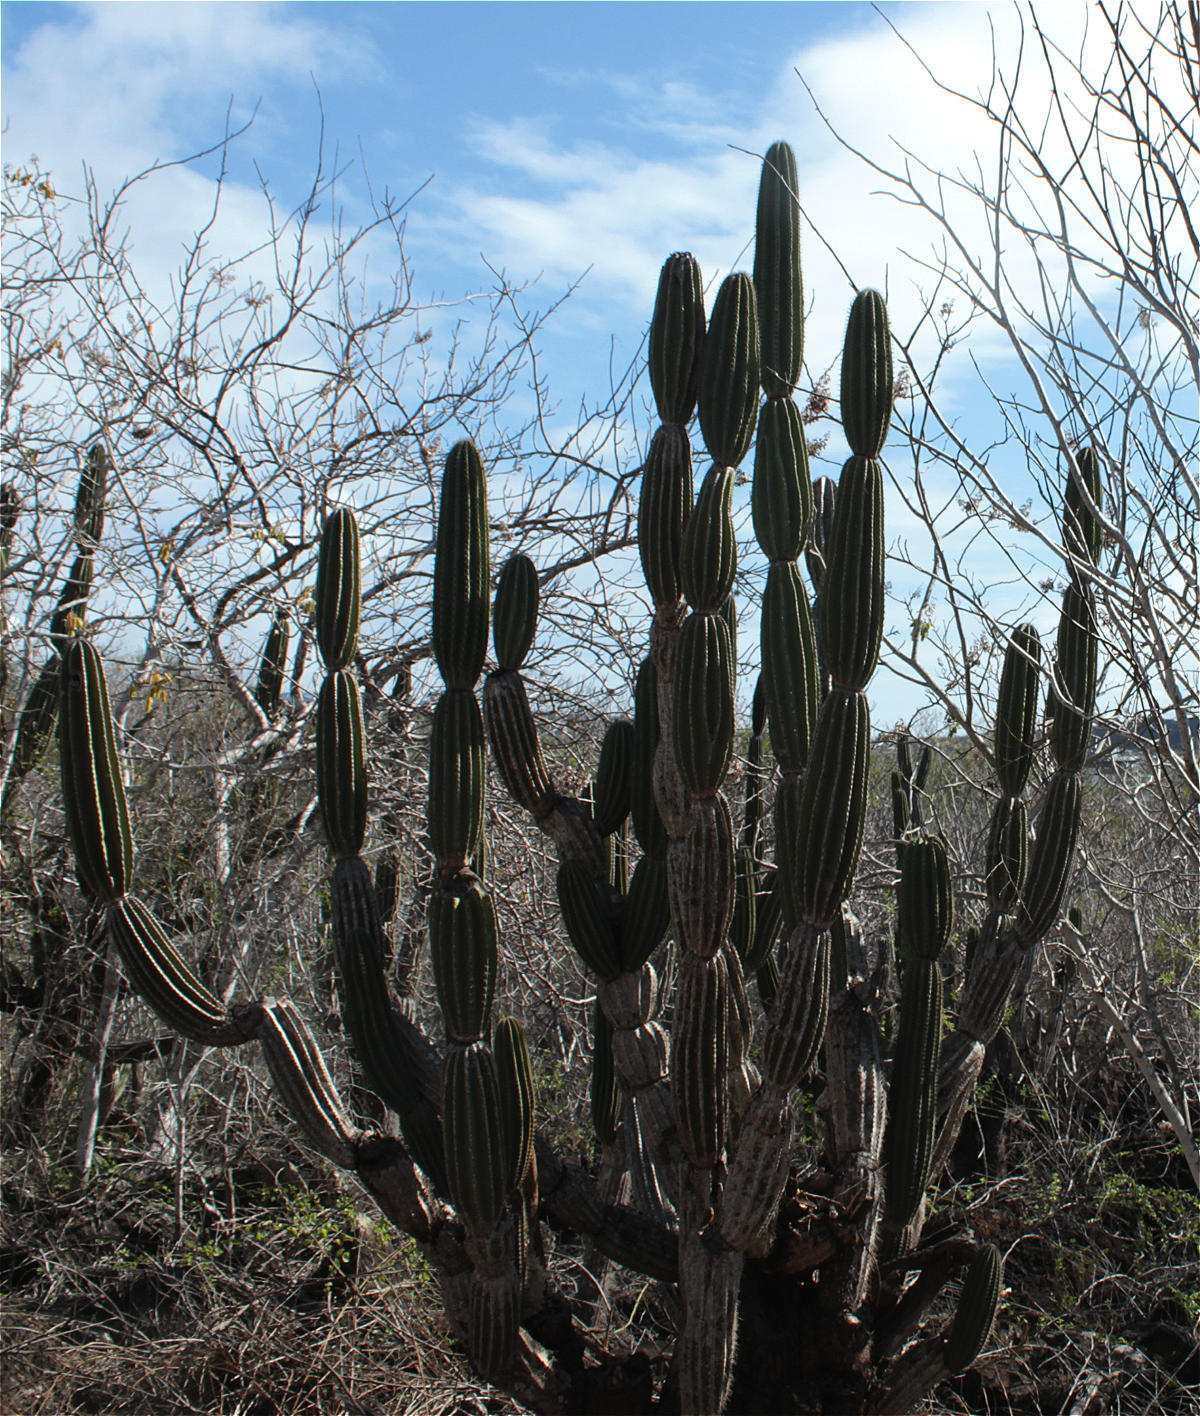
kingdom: Plantae
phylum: Tracheophyta
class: Magnoliopsida
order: Caryophyllales
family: Cactaceae
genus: Jasminocereus
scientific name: Jasminocereus thouarsii
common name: Candelabra cactus
